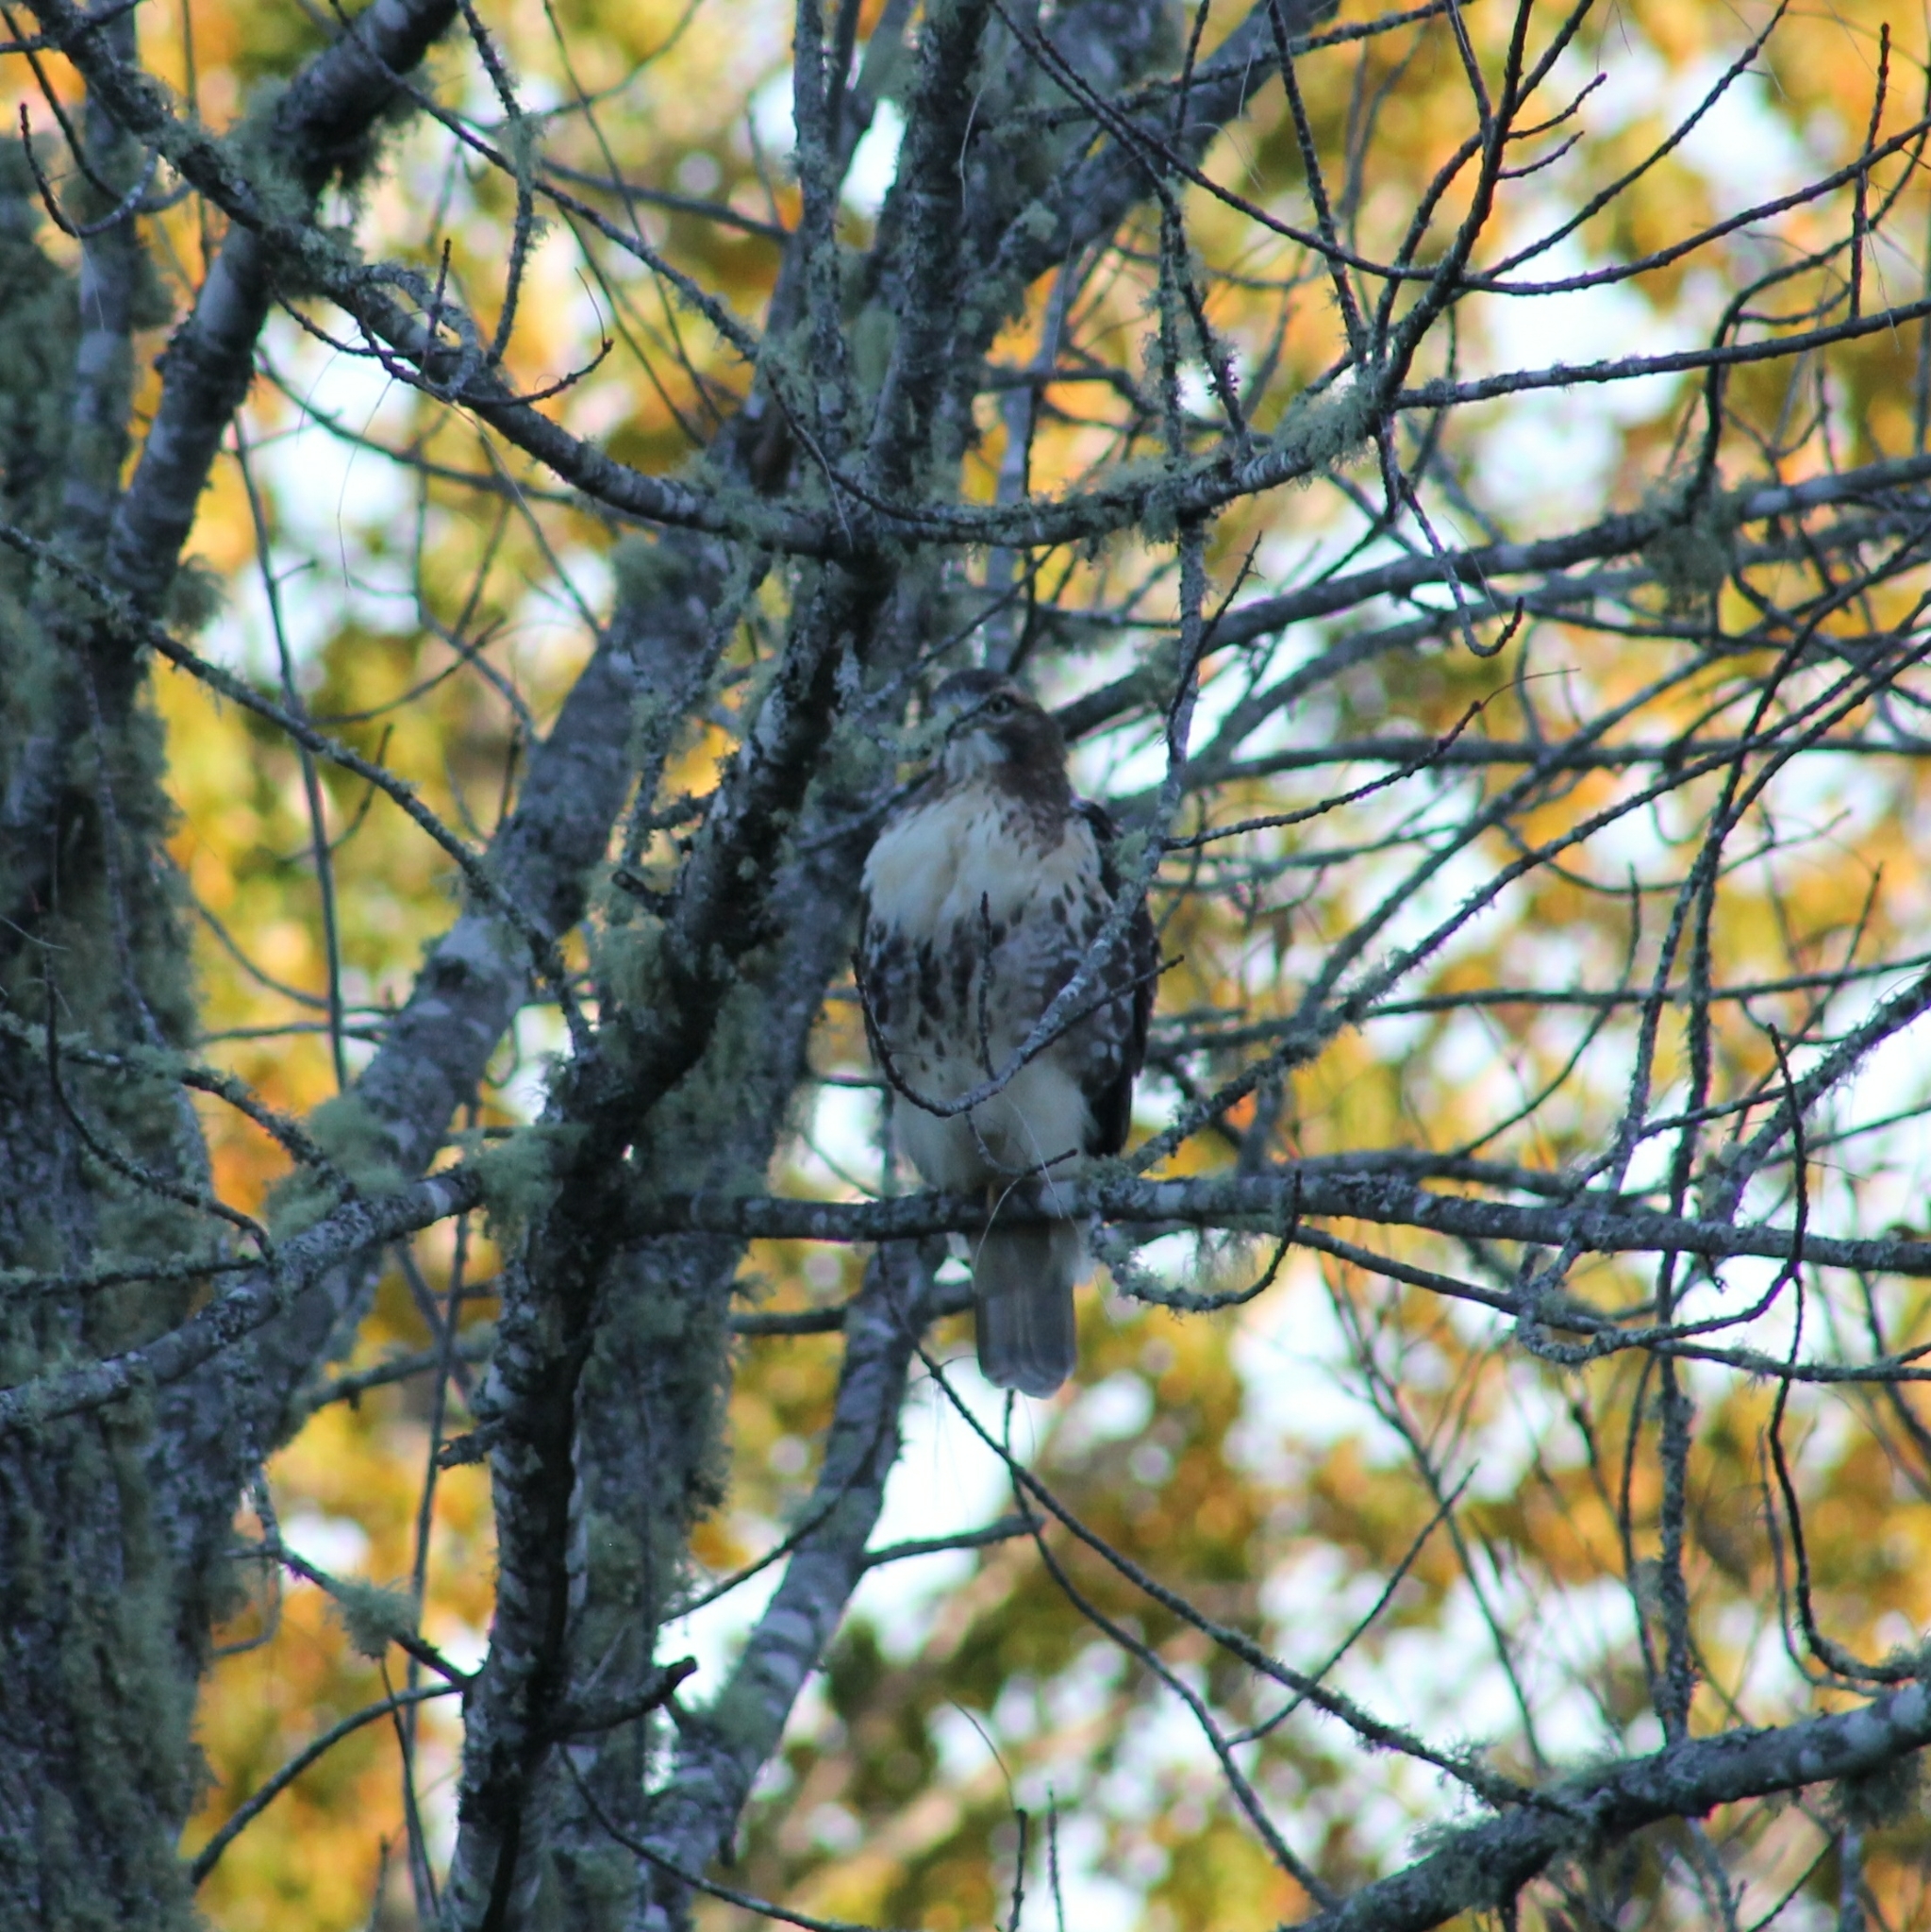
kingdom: Animalia
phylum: Chordata
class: Aves
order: Accipitriformes
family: Accipitridae
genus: Buteo
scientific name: Buteo jamaicensis
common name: Red-tailed hawk
